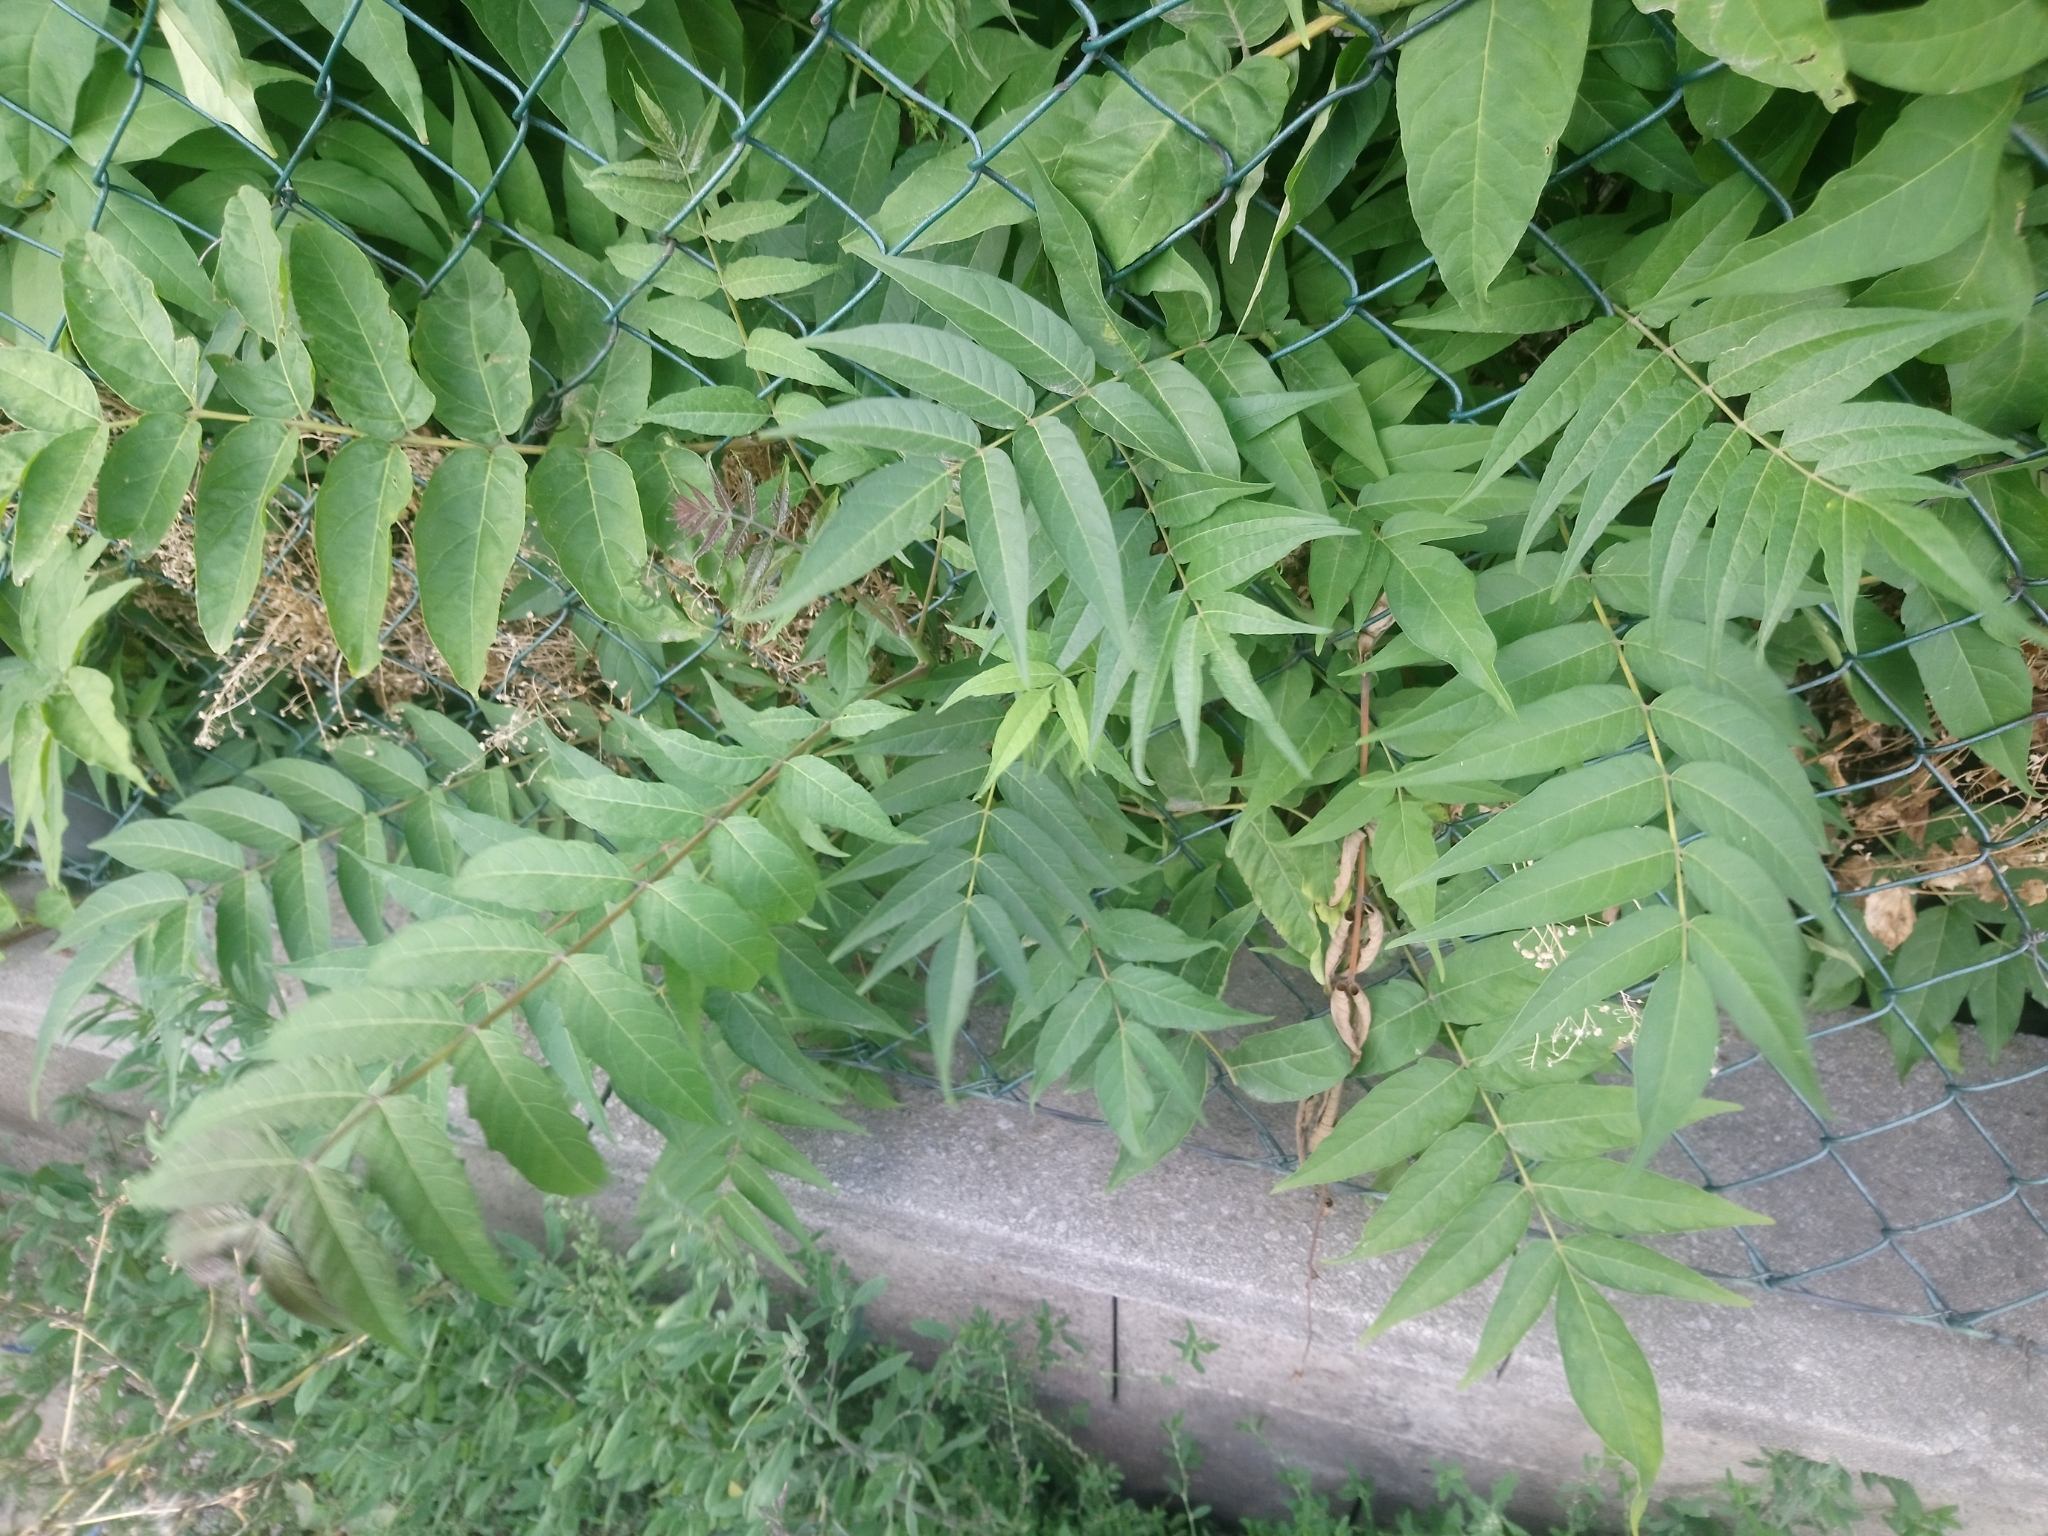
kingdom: Plantae
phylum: Tracheophyta
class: Magnoliopsida
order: Sapindales
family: Simaroubaceae
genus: Ailanthus
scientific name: Ailanthus altissima
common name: Tree-of-heaven
